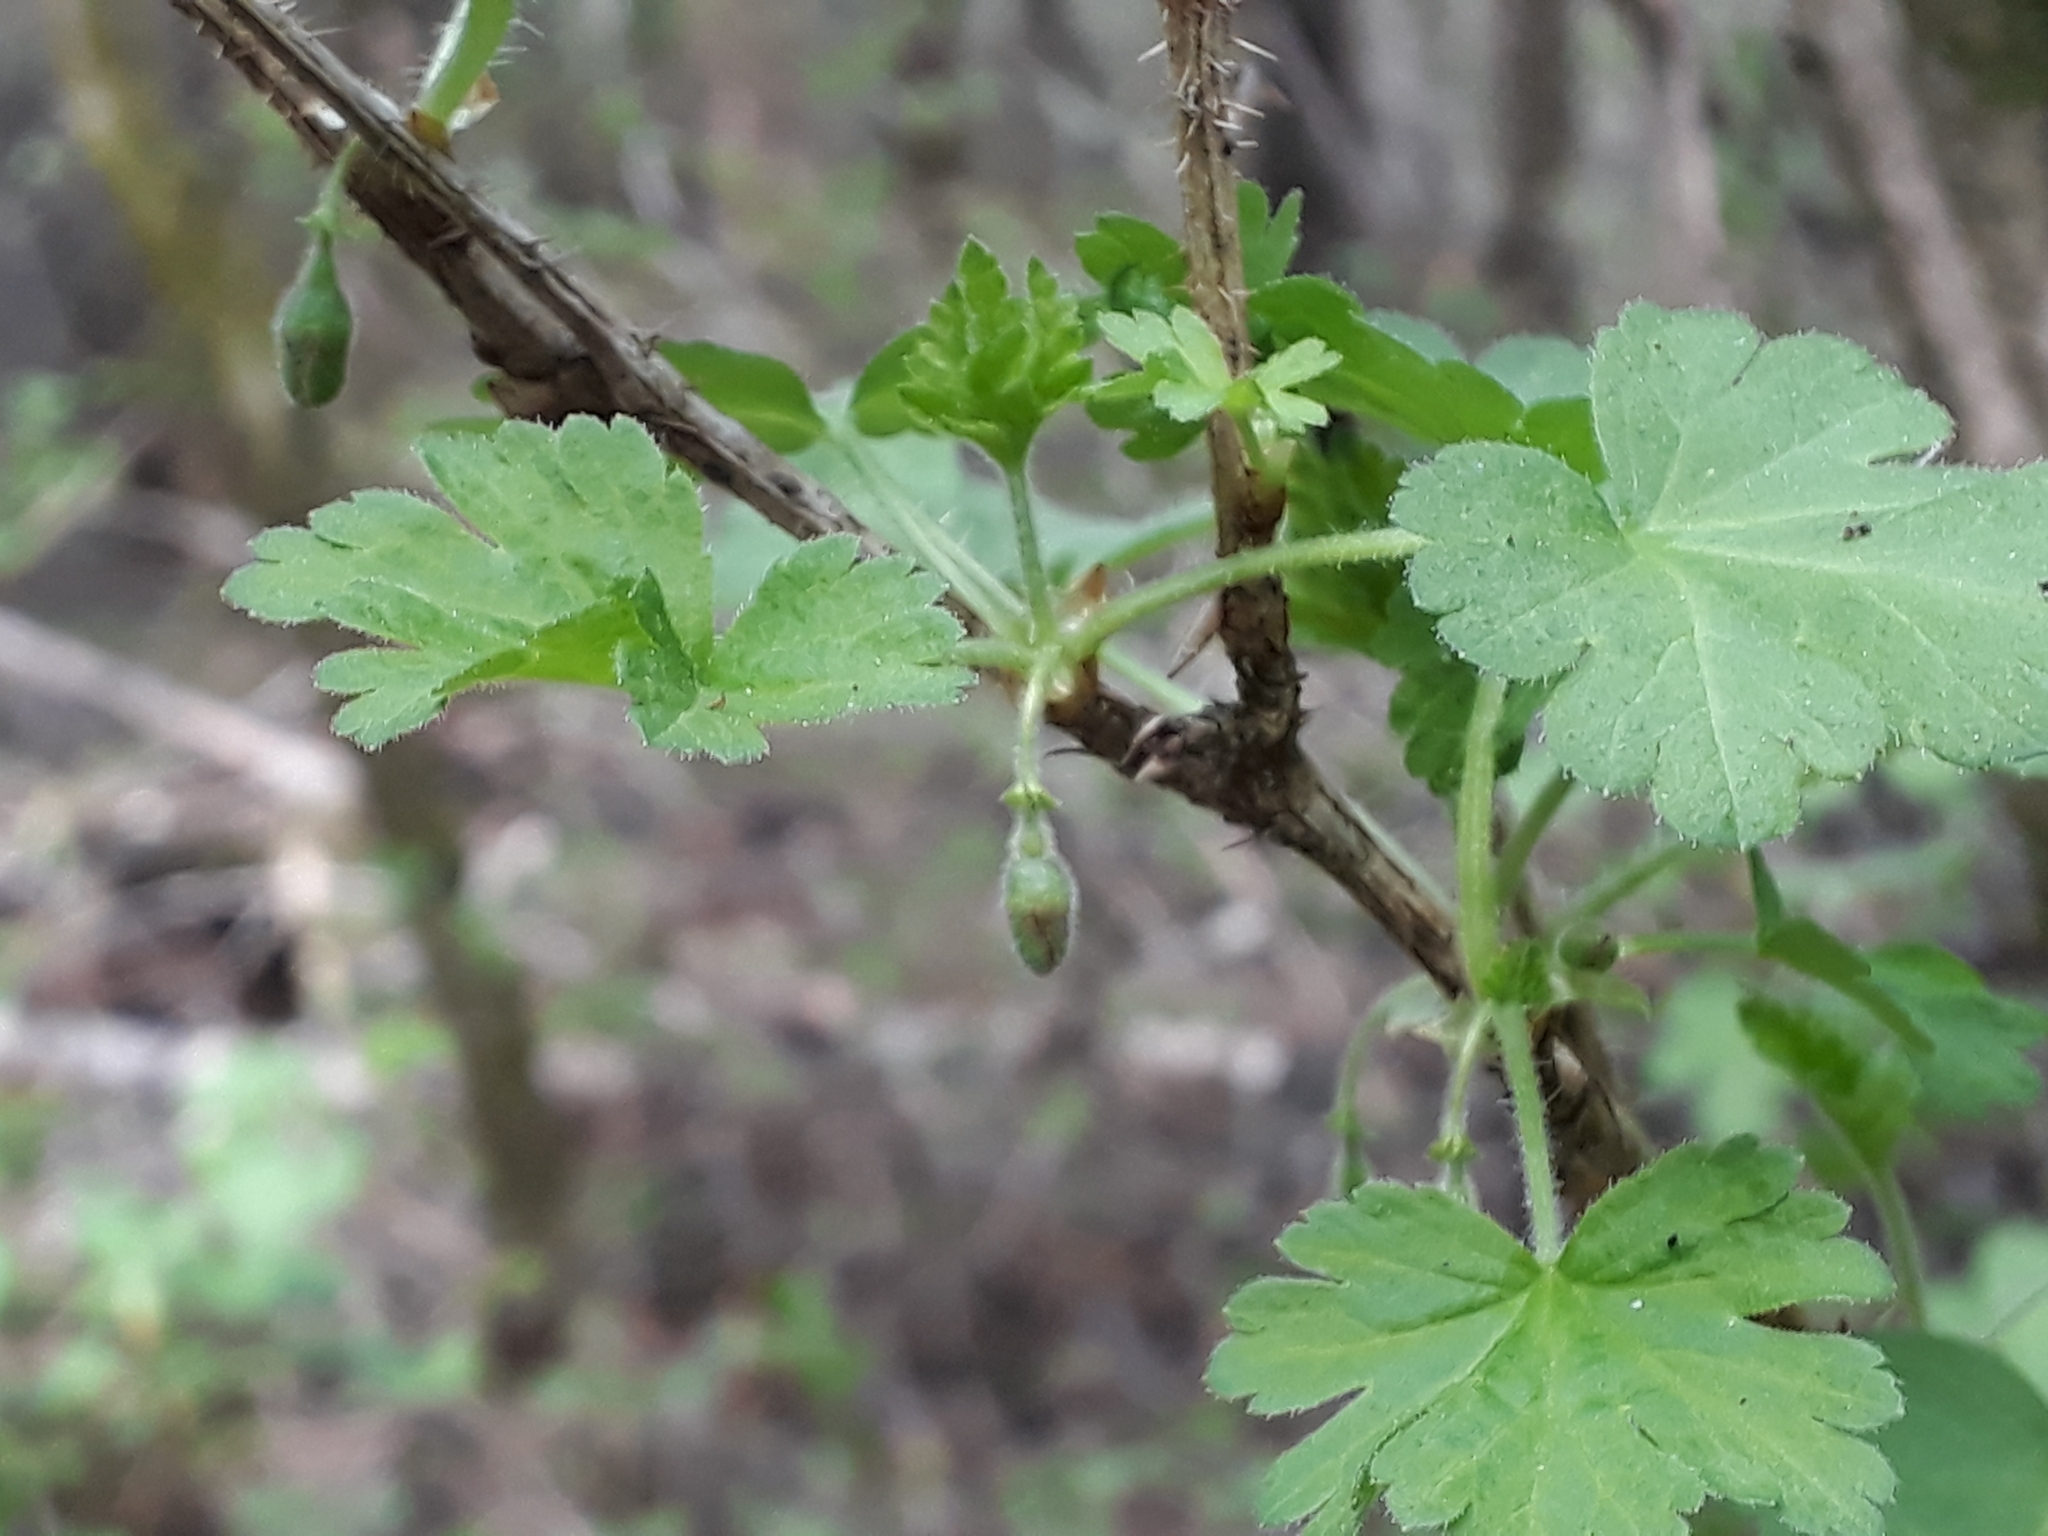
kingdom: Plantae
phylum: Tracheophyta
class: Magnoliopsida
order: Saxifragales
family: Grossulariaceae
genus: Ribes
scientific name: Ribes uva-crispa
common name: Gooseberry
